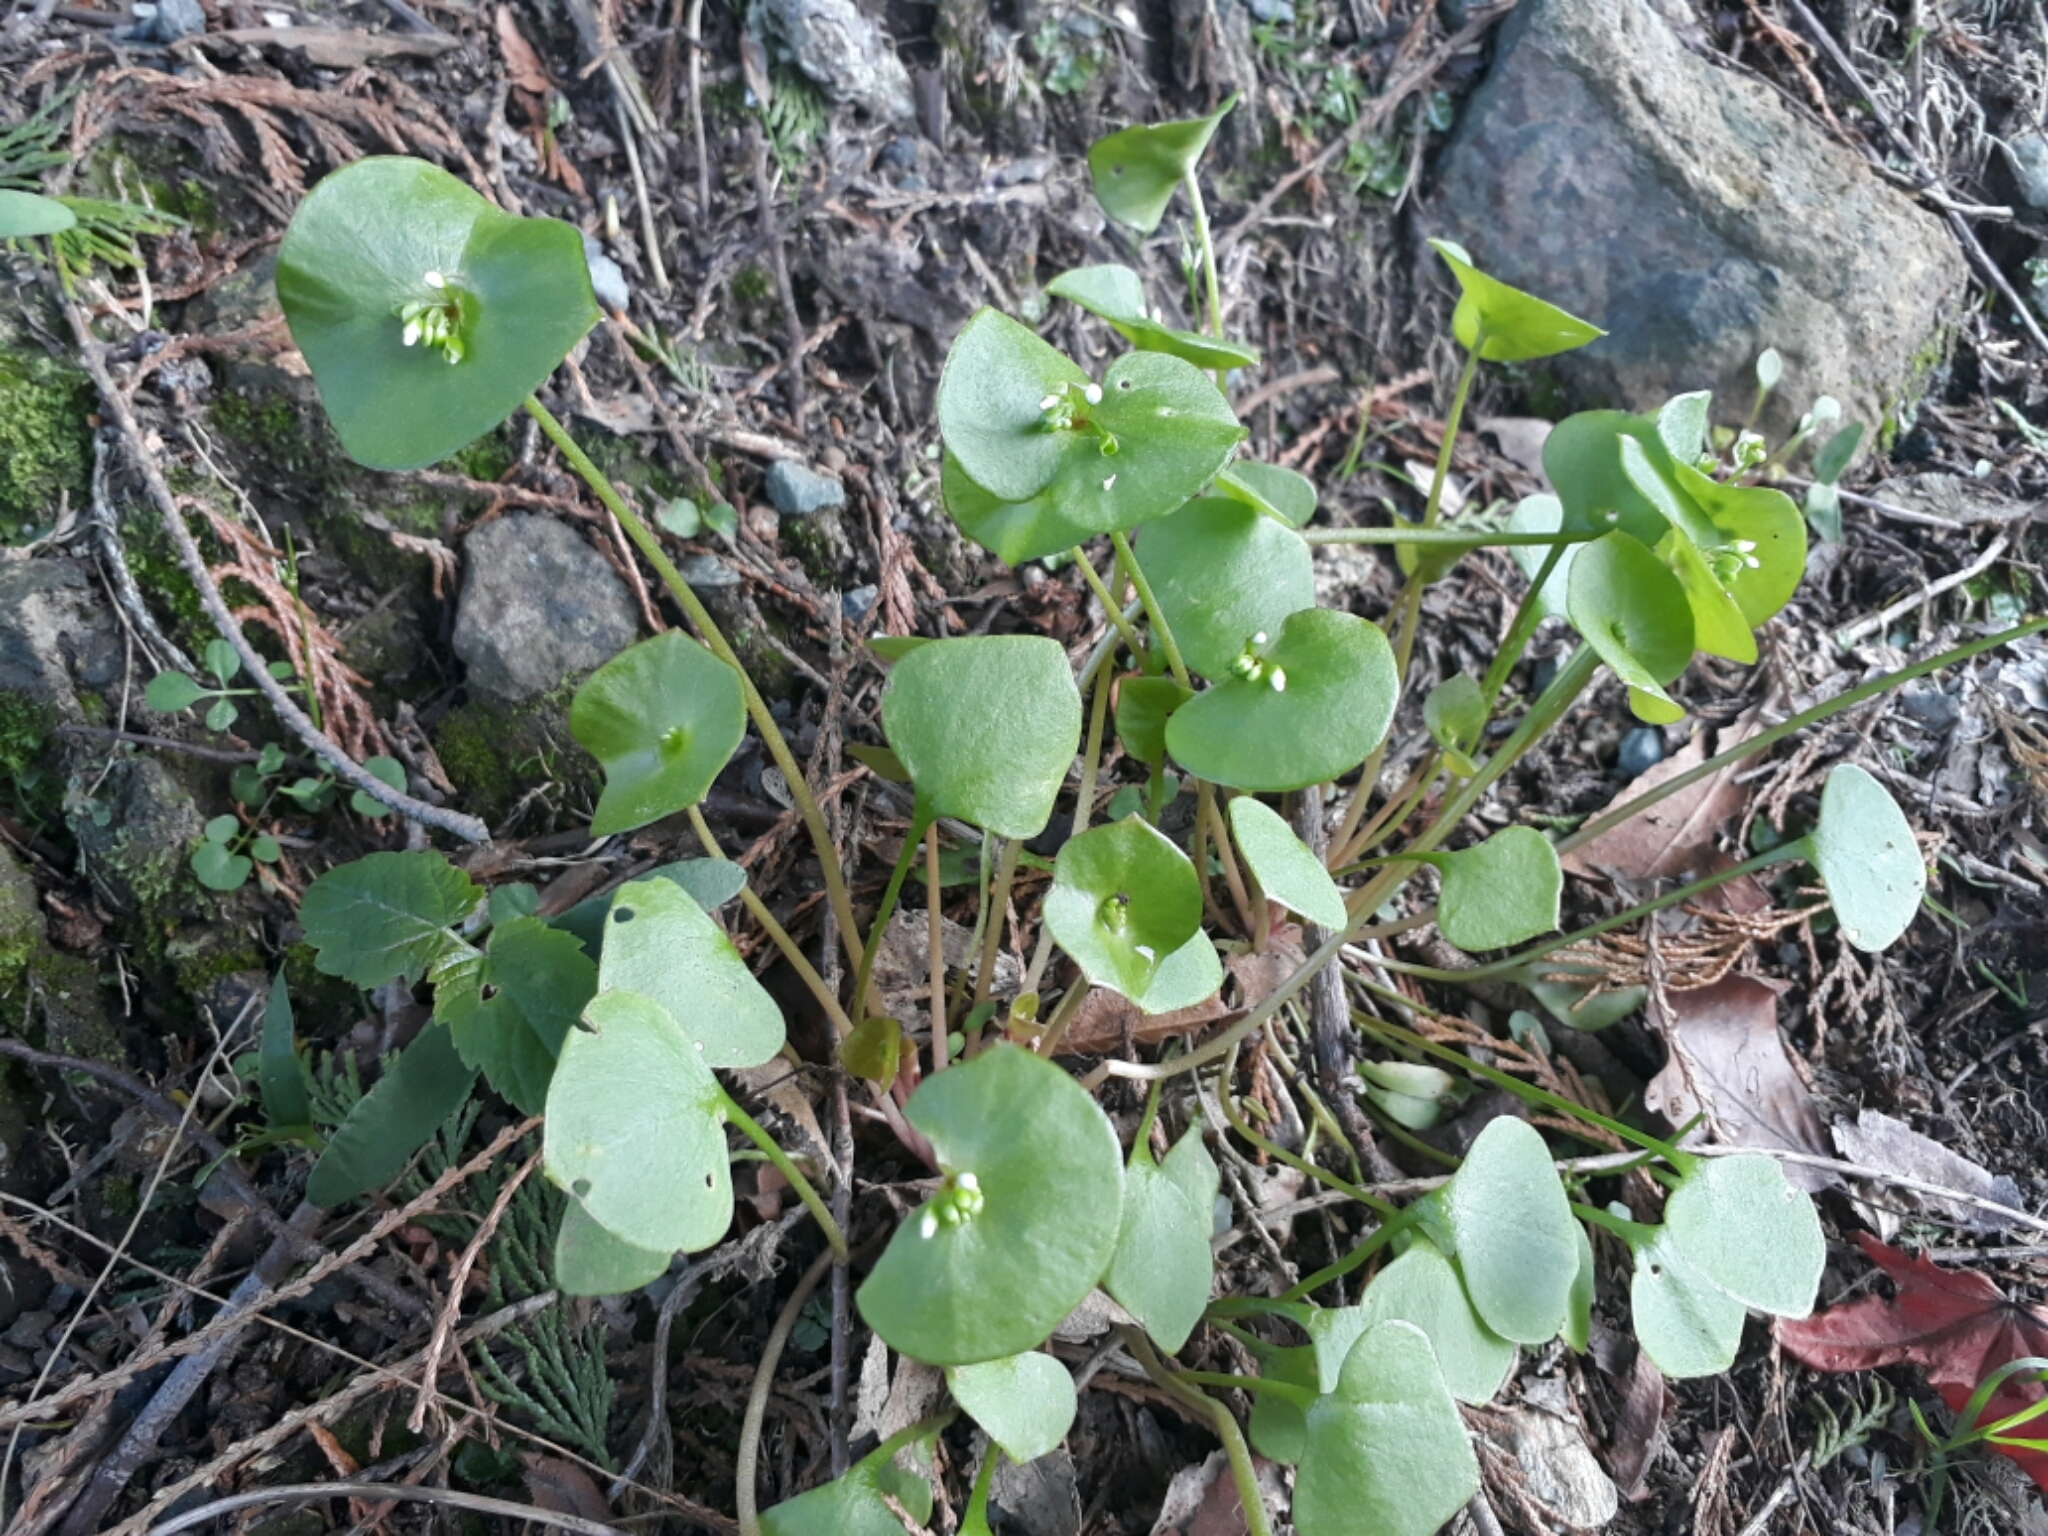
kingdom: Plantae
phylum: Tracheophyta
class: Magnoliopsida
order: Caryophyllales
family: Montiaceae
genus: Claytonia
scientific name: Claytonia perfoliata
